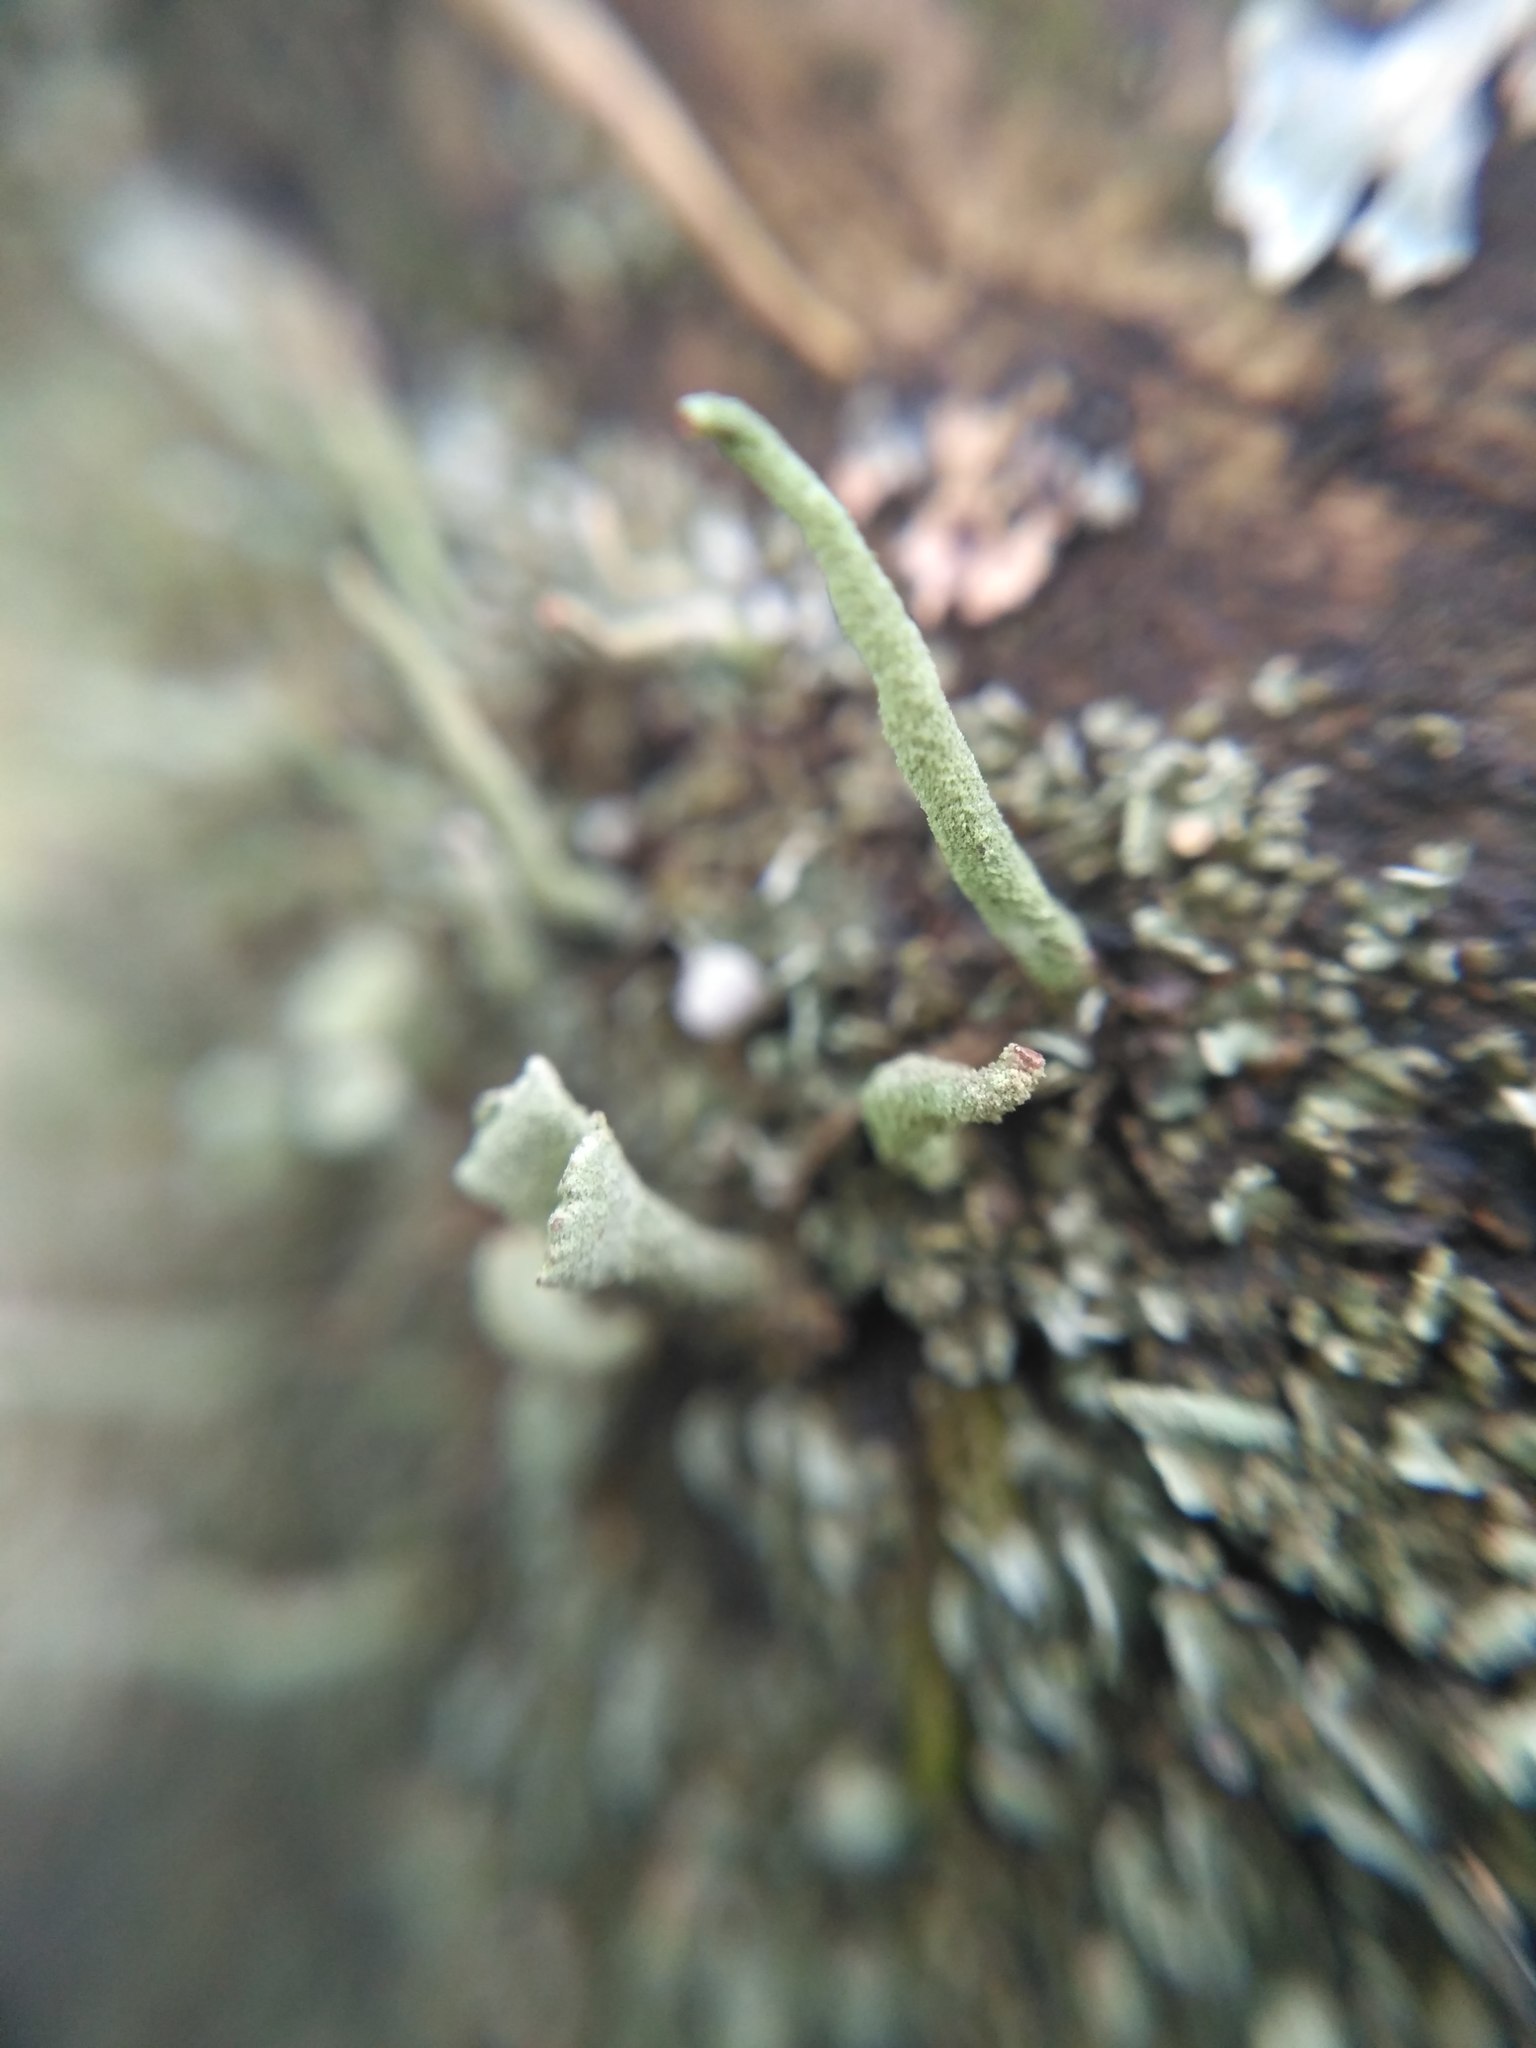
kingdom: Fungi
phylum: Ascomycota
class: Lecanoromycetes
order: Lecanorales
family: Cladoniaceae
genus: Cladonia
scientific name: Cladonia subulata
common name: Antlered powderhorn
